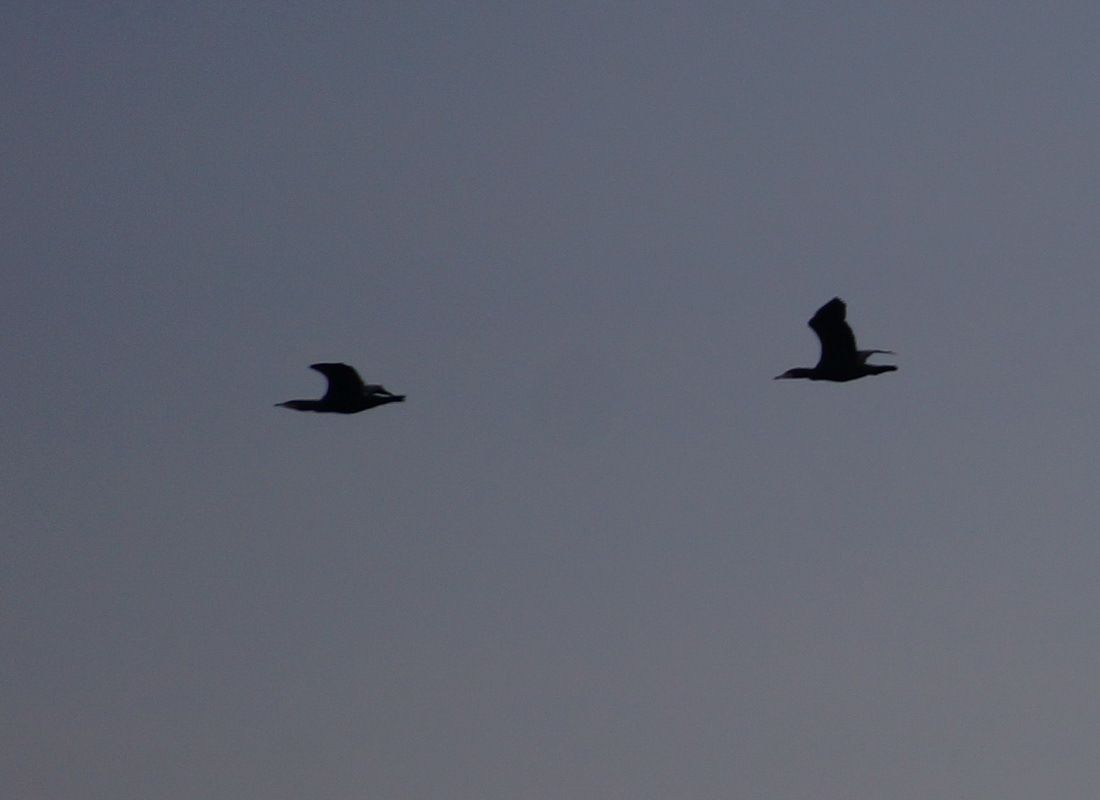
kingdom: Animalia
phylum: Chordata
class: Aves
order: Suliformes
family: Phalacrocoracidae
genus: Phalacrocorax
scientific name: Phalacrocorax carbo
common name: Great cormorant
